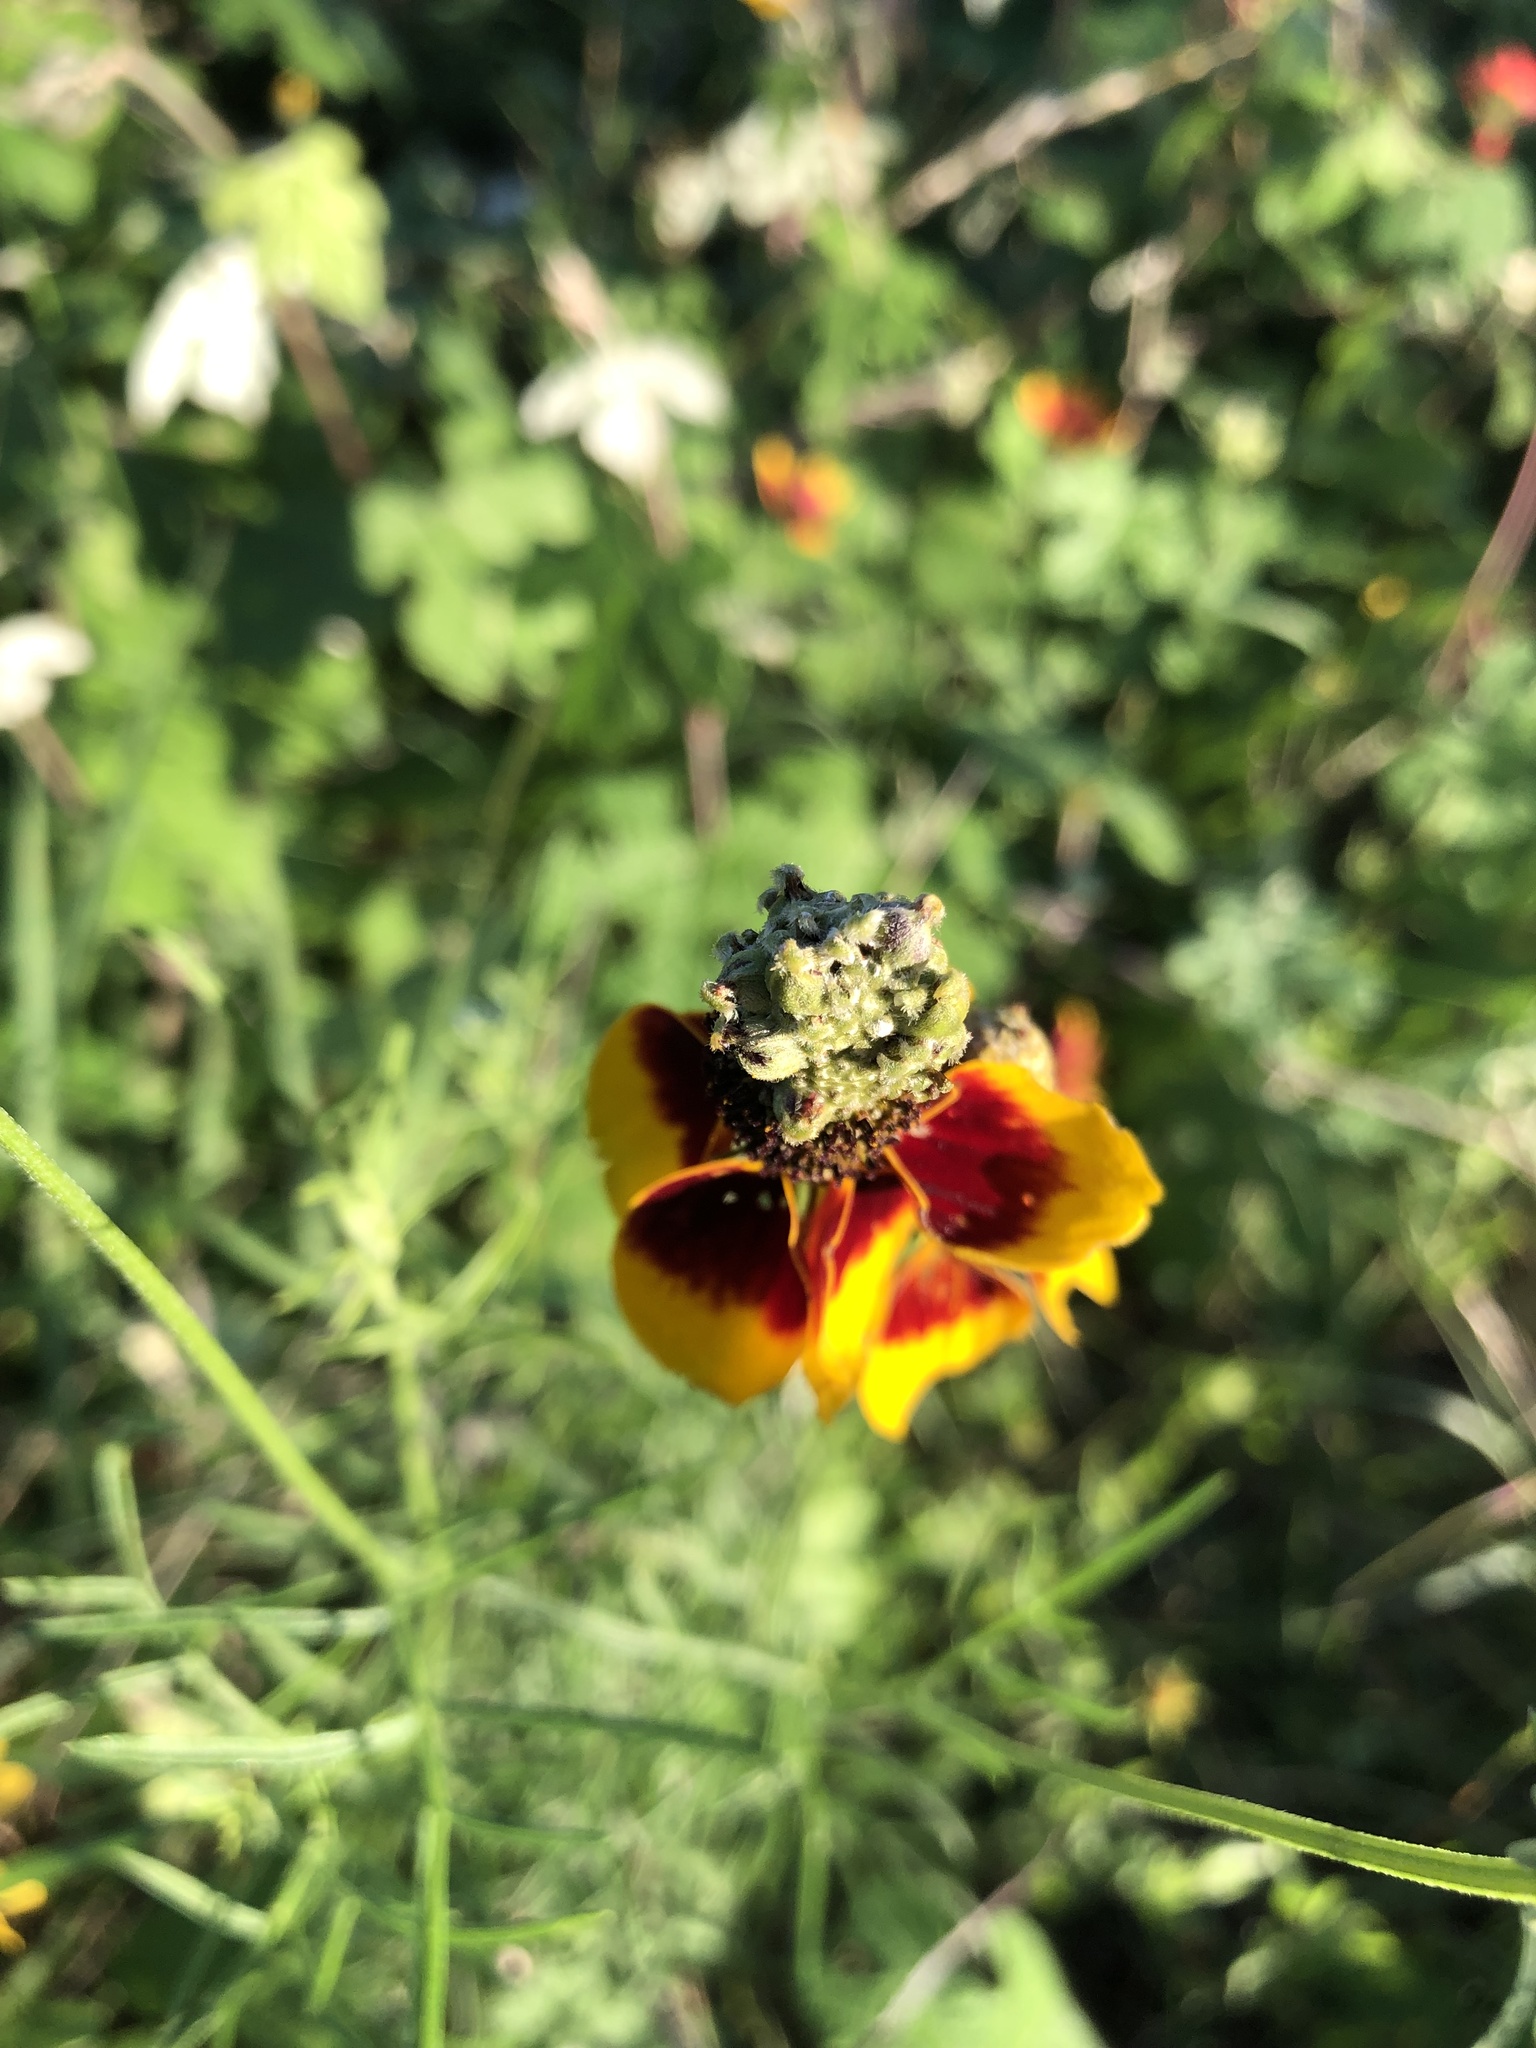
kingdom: Plantae
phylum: Tracheophyta
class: Magnoliopsida
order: Asterales
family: Asteraceae
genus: Ratibida
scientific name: Ratibida columnifera
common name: Prairie coneflower
